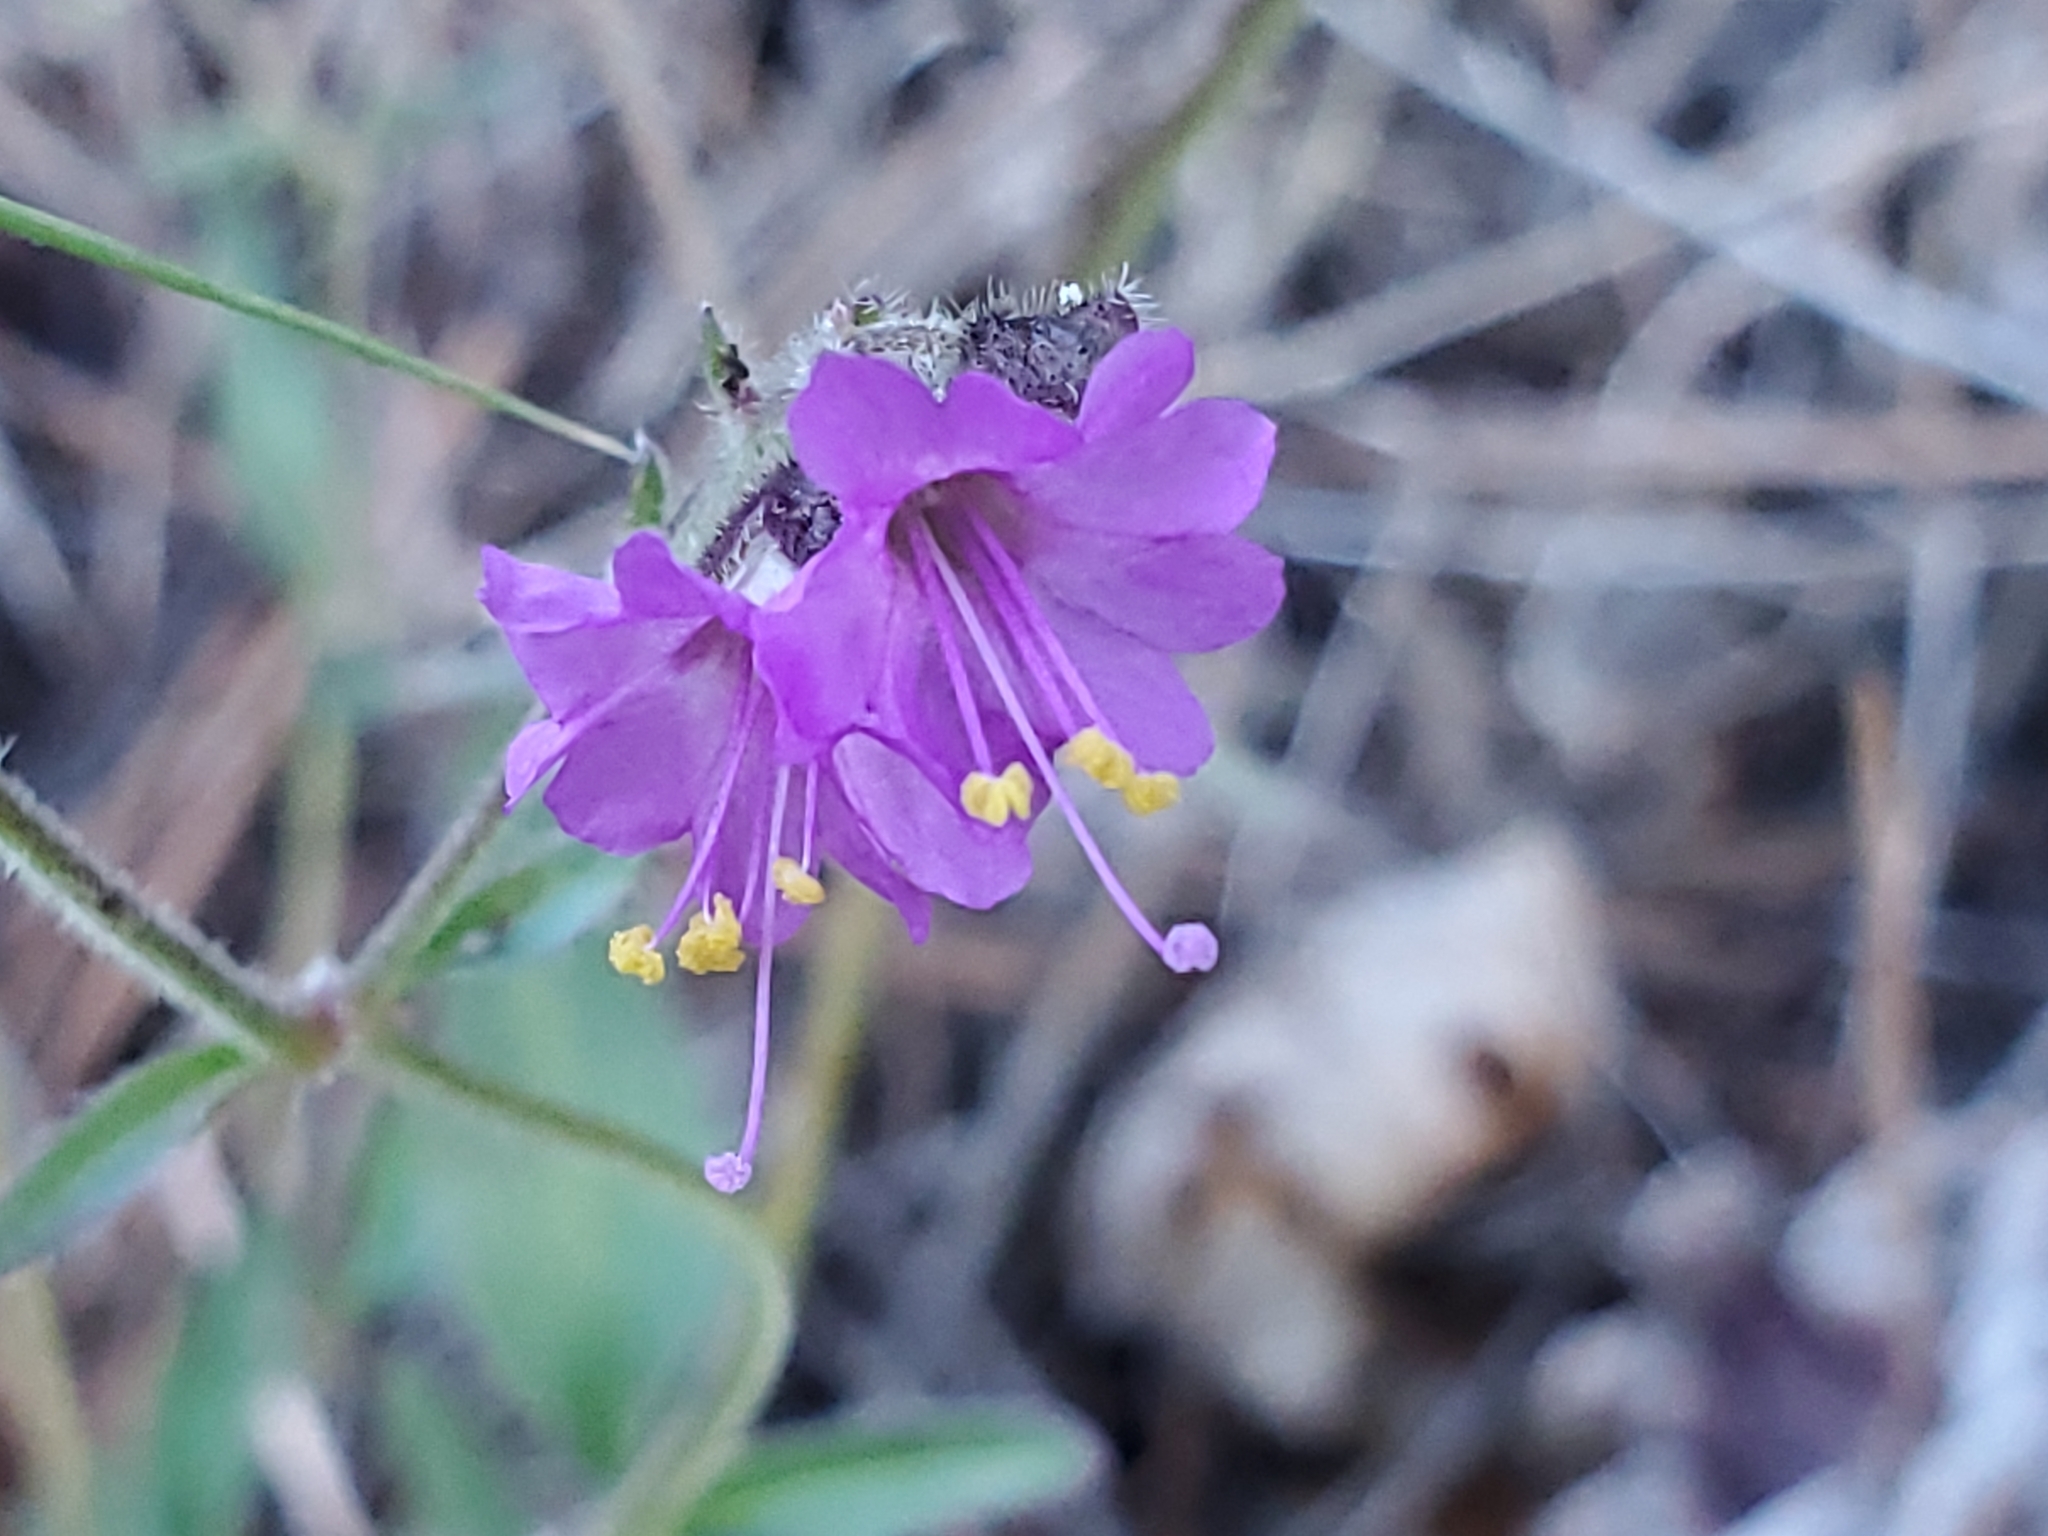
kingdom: Plantae
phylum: Tracheophyta
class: Magnoliopsida
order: Caryophyllales
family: Nyctaginaceae
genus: Mirabilis
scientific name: Mirabilis oxybaphoides
